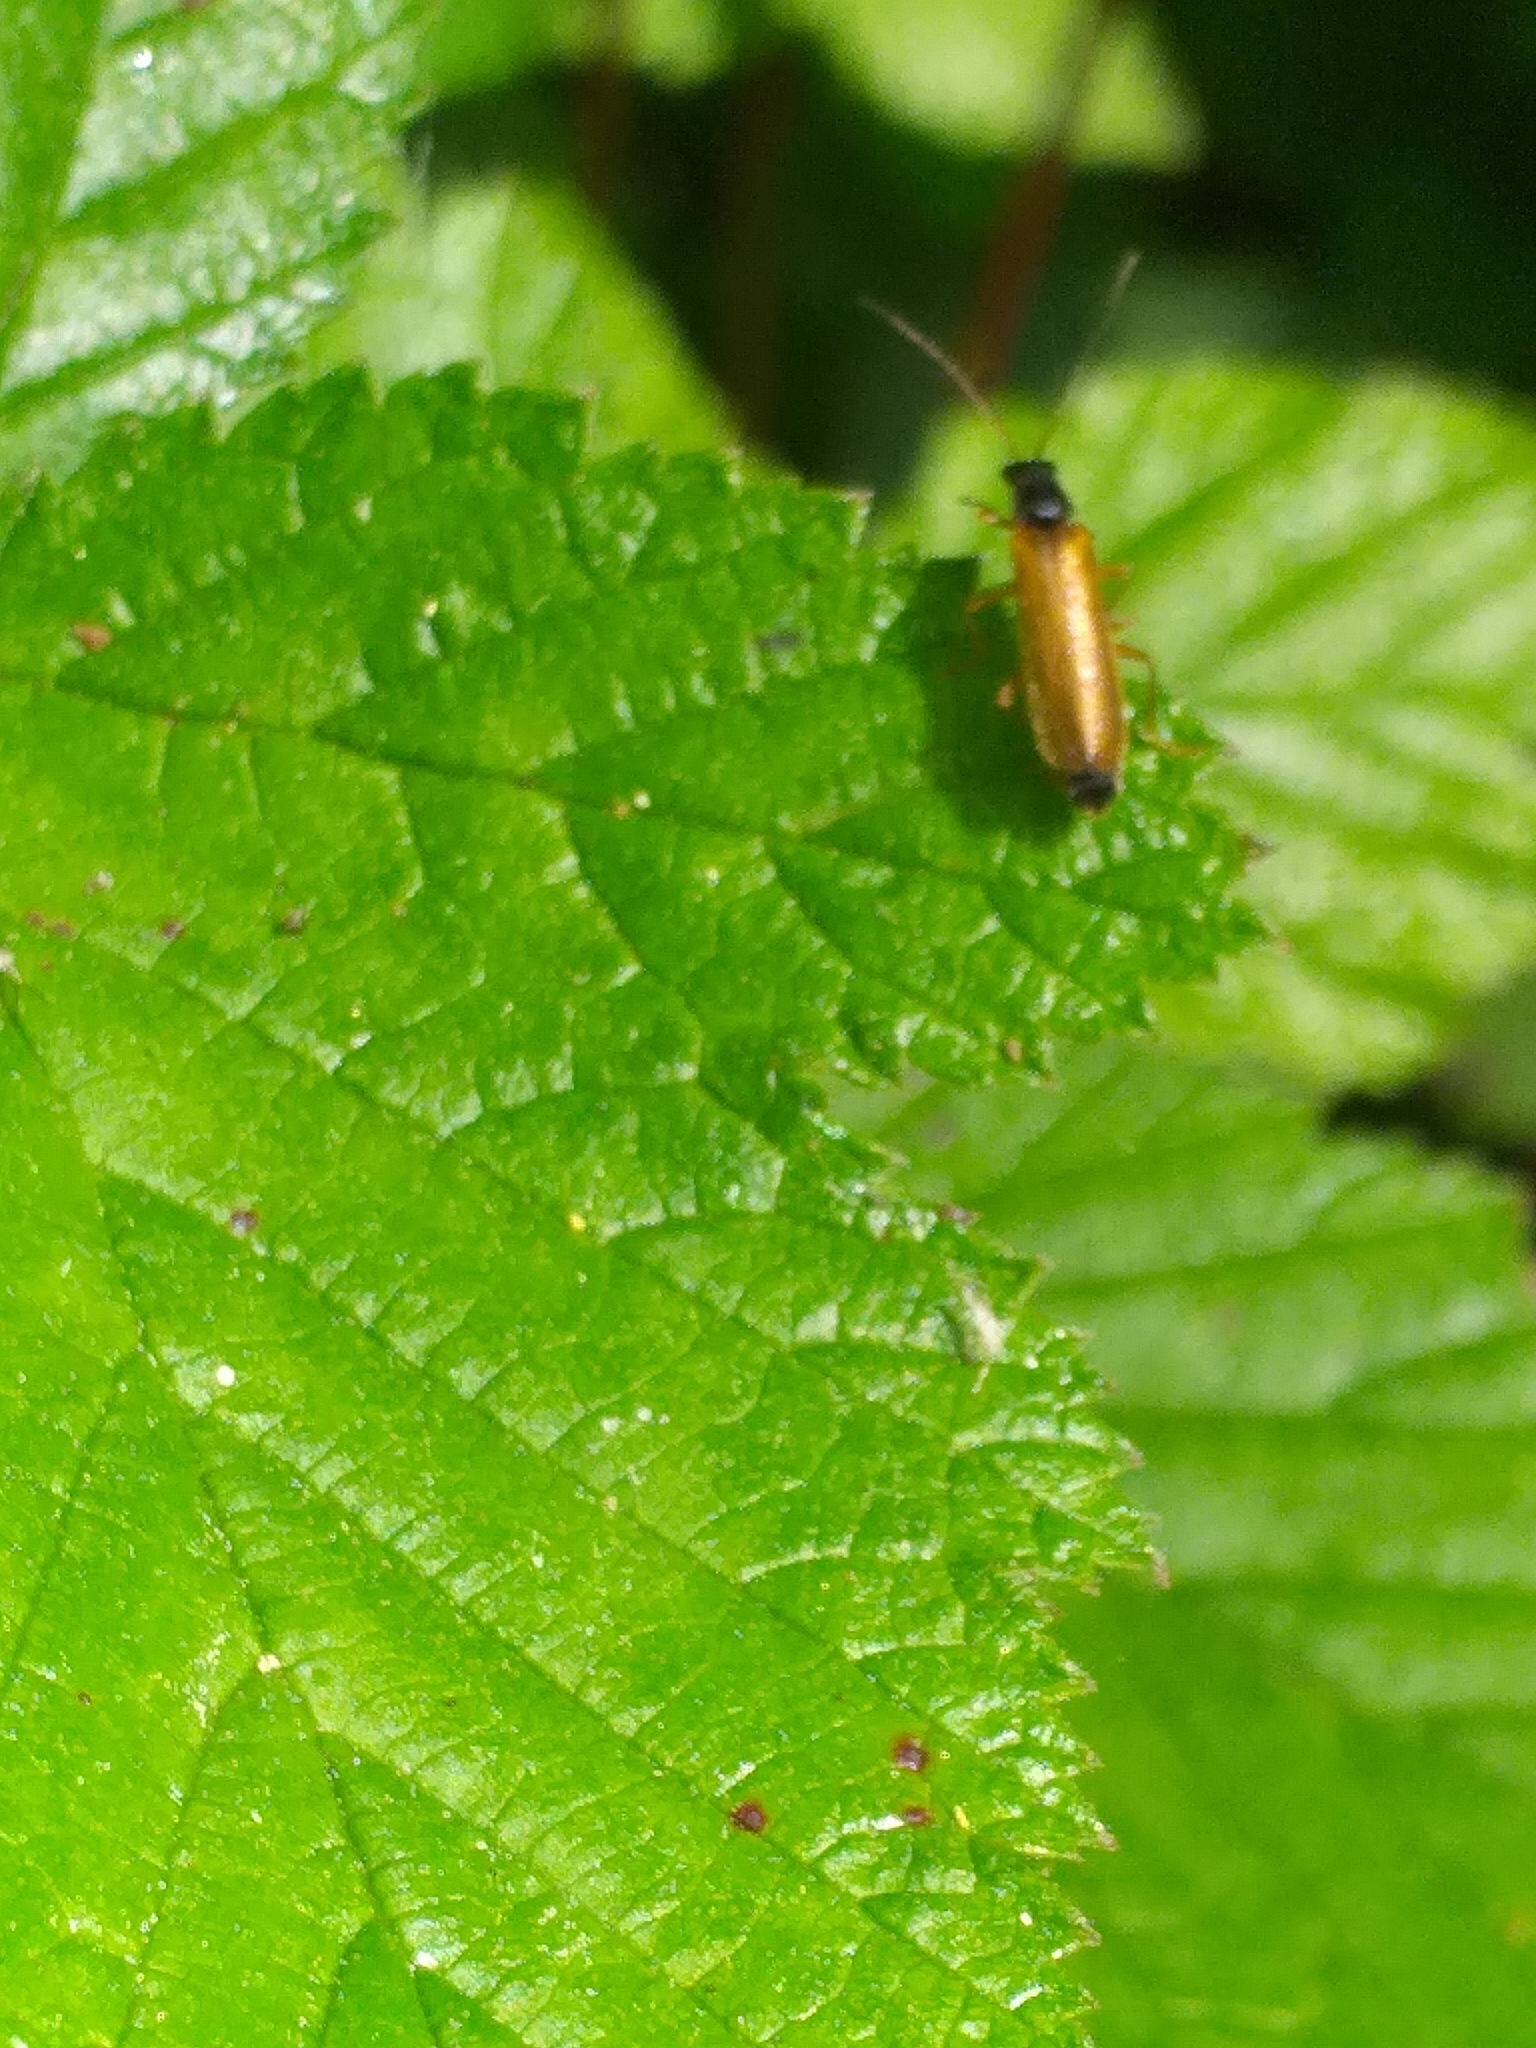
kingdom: Animalia
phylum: Arthropoda
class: Insecta
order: Coleoptera
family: Cantharidae
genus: Rhagonycha
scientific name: Rhagonycha lignosa
